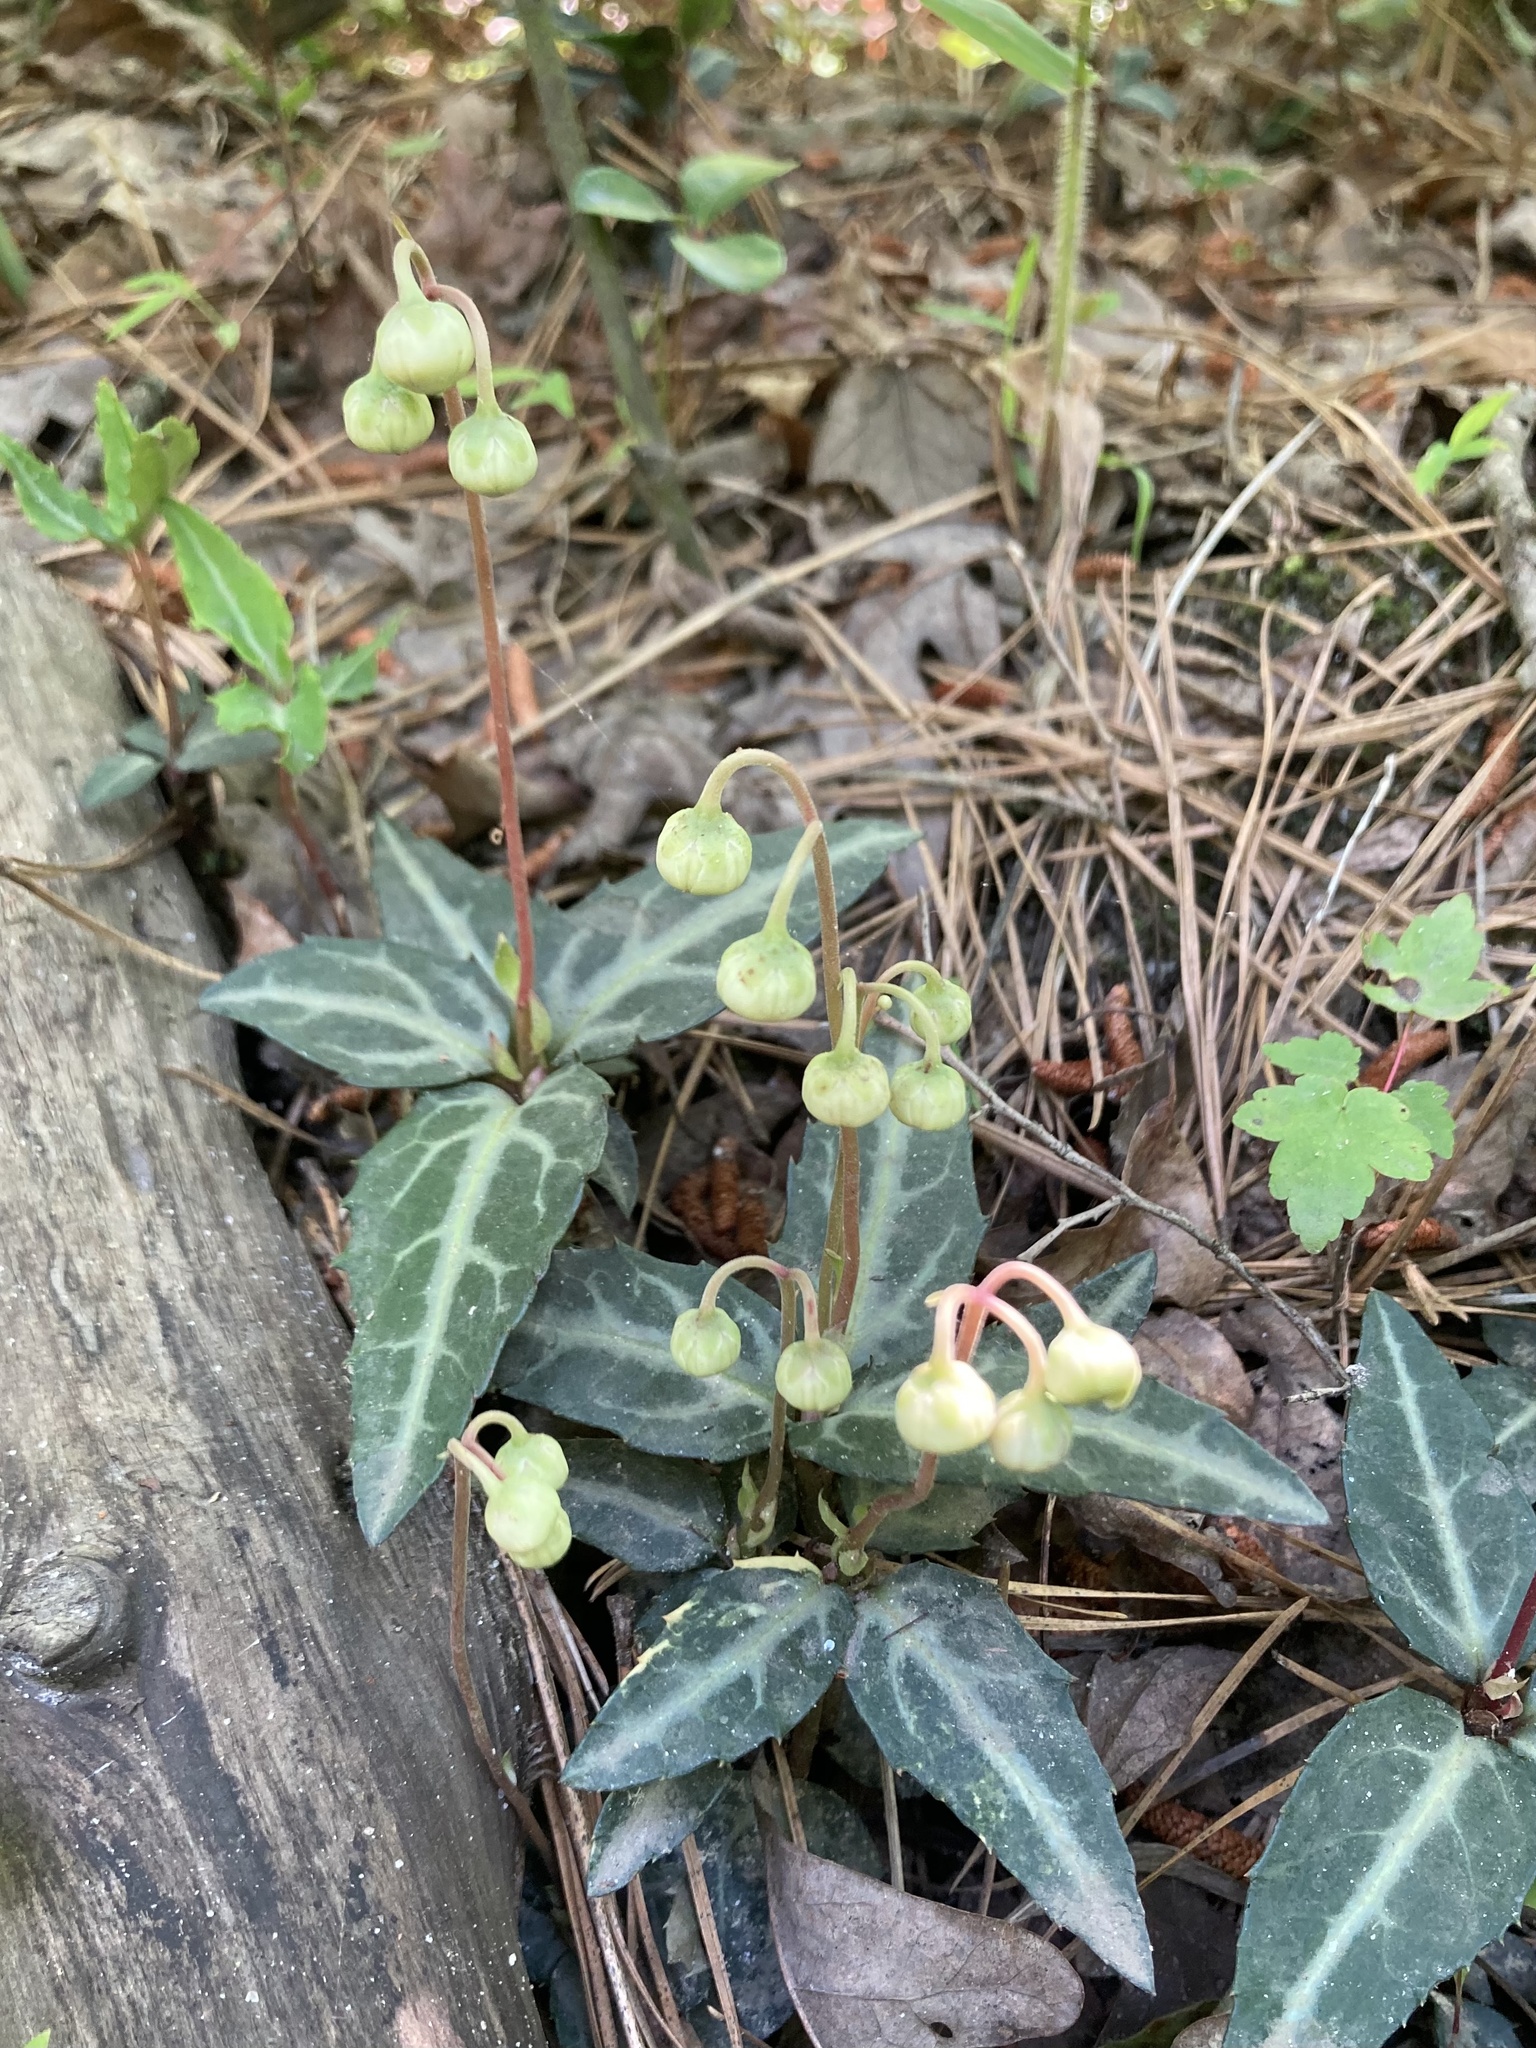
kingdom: Plantae
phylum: Tracheophyta
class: Magnoliopsida
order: Ericales
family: Ericaceae
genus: Chimaphila
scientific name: Chimaphila maculata
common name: Spotted pipsissewa
